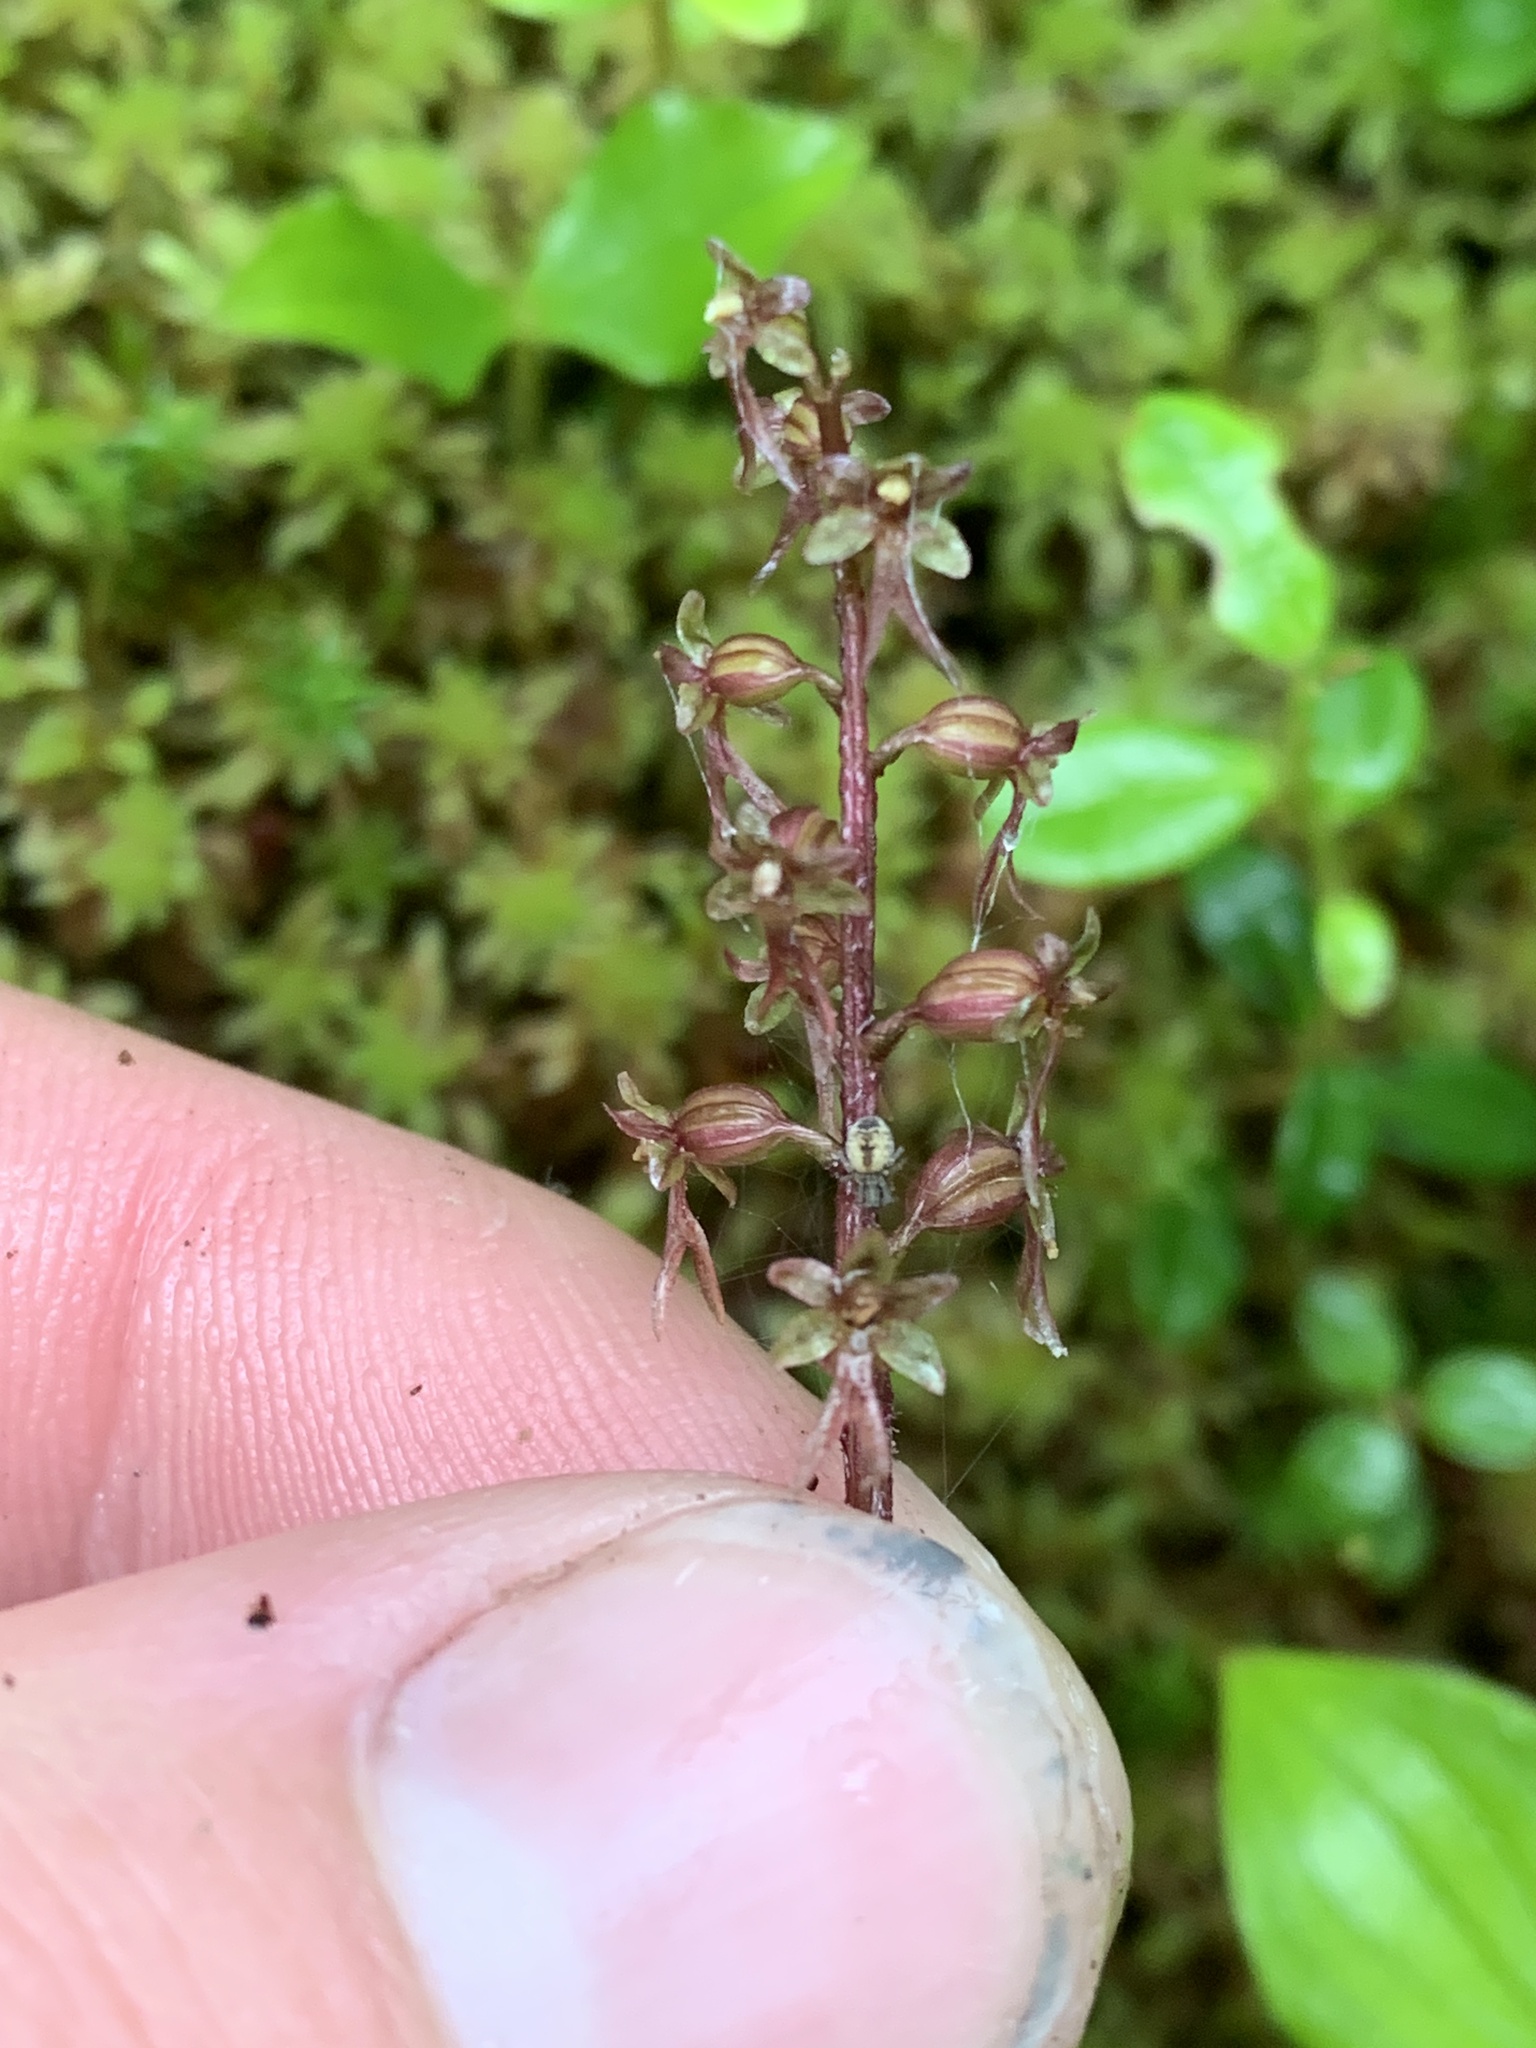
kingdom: Plantae
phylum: Tracheophyta
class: Liliopsida
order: Asparagales
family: Orchidaceae
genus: Neottia
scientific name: Neottia cordata
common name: Lesser twayblade
